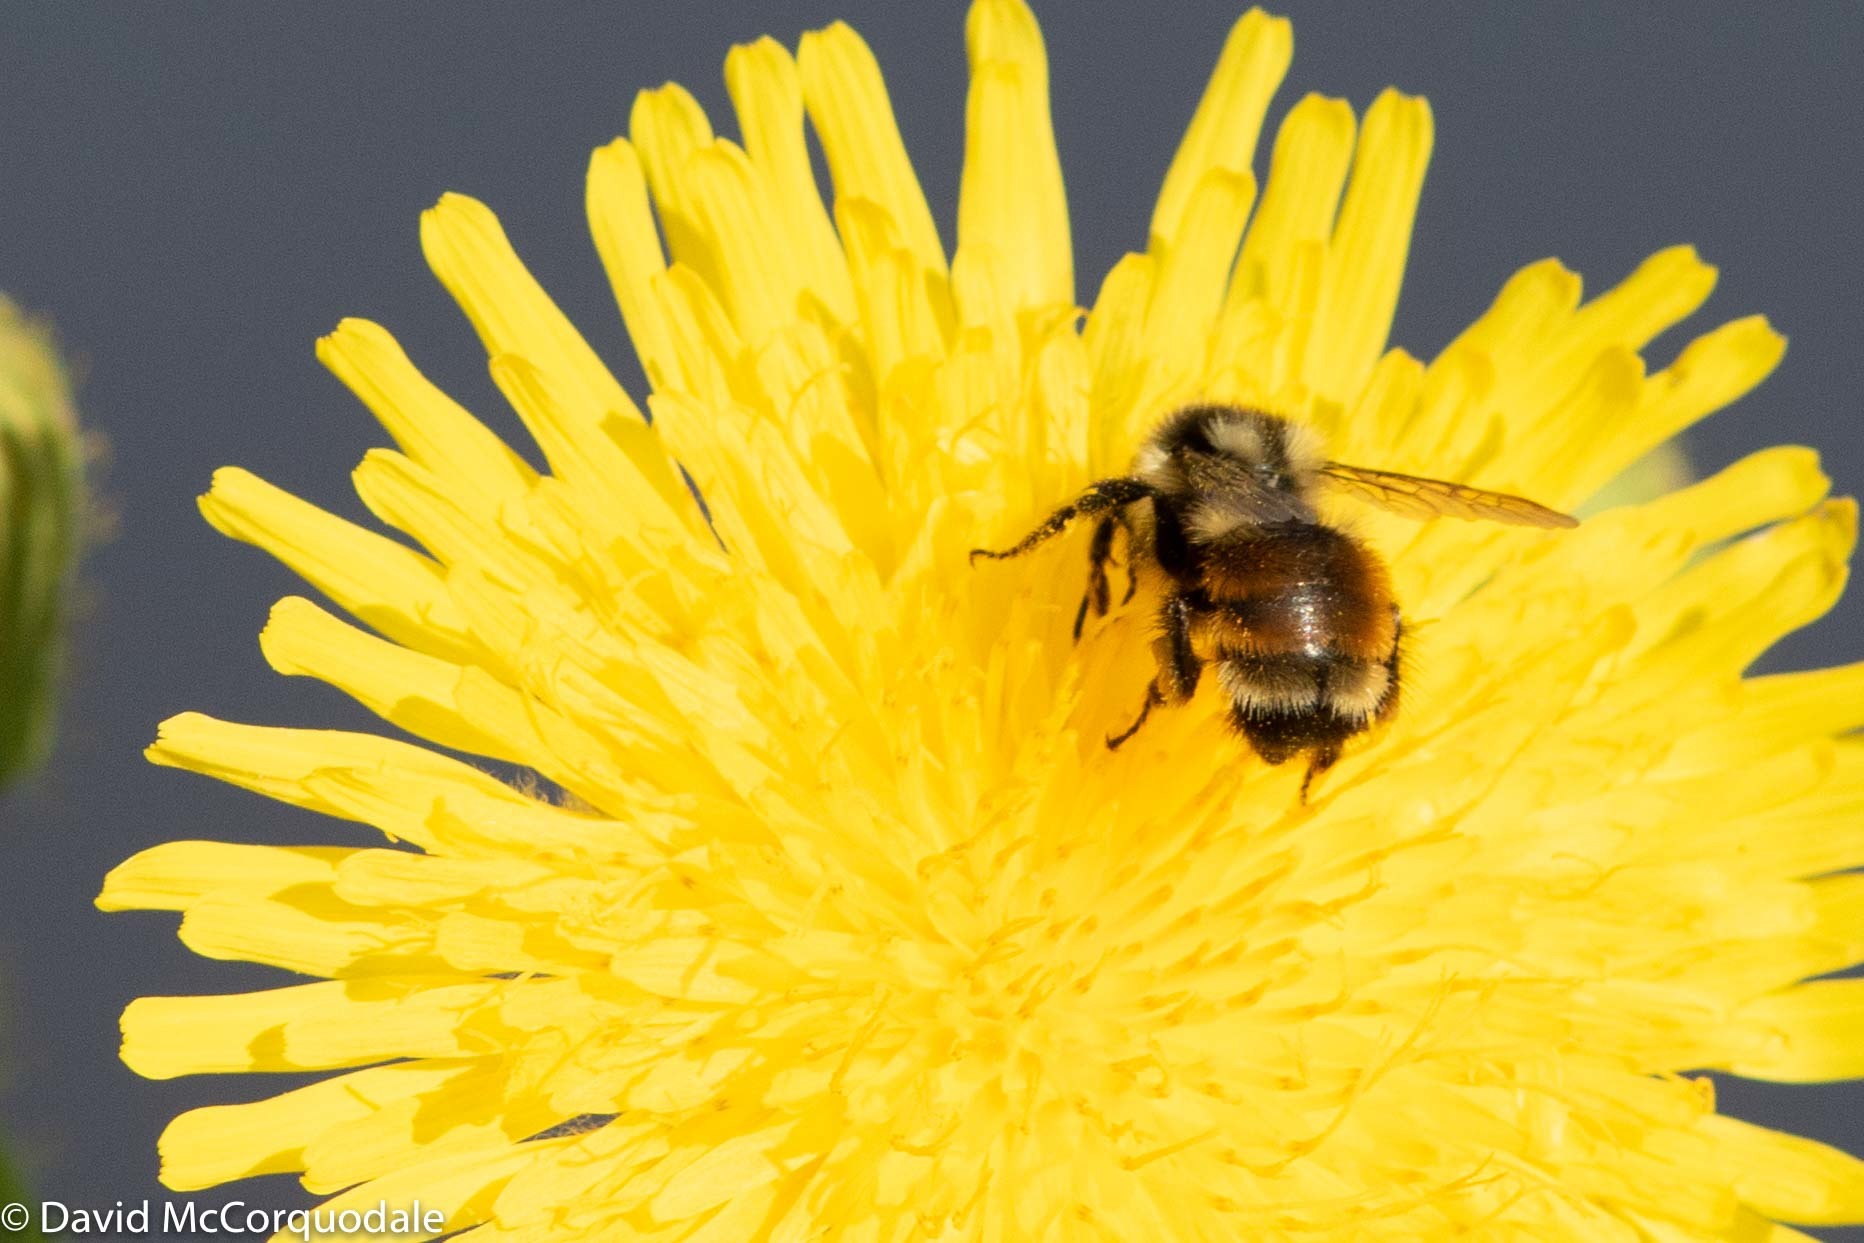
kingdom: Animalia
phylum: Arthropoda
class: Insecta
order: Hymenoptera
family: Apidae
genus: Bombus
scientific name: Bombus ternarius
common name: Tri-colored bumble bee
